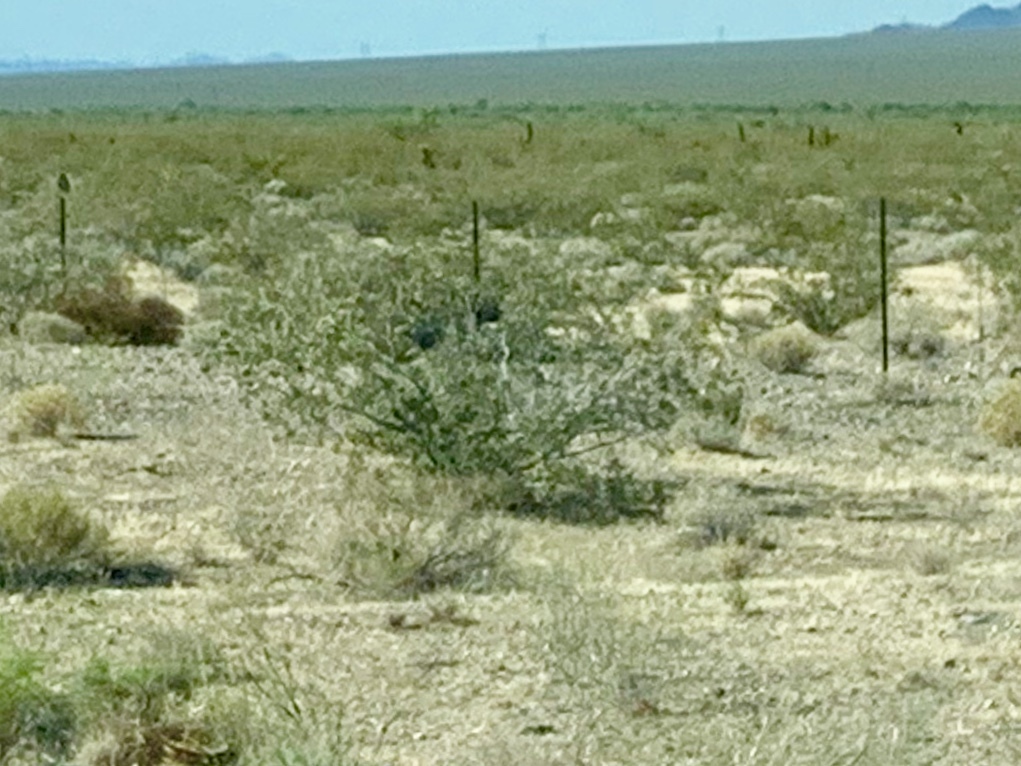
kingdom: Plantae
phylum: Tracheophyta
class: Magnoliopsida
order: Zygophyllales
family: Zygophyllaceae
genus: Larrea
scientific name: Larrea tridentata
